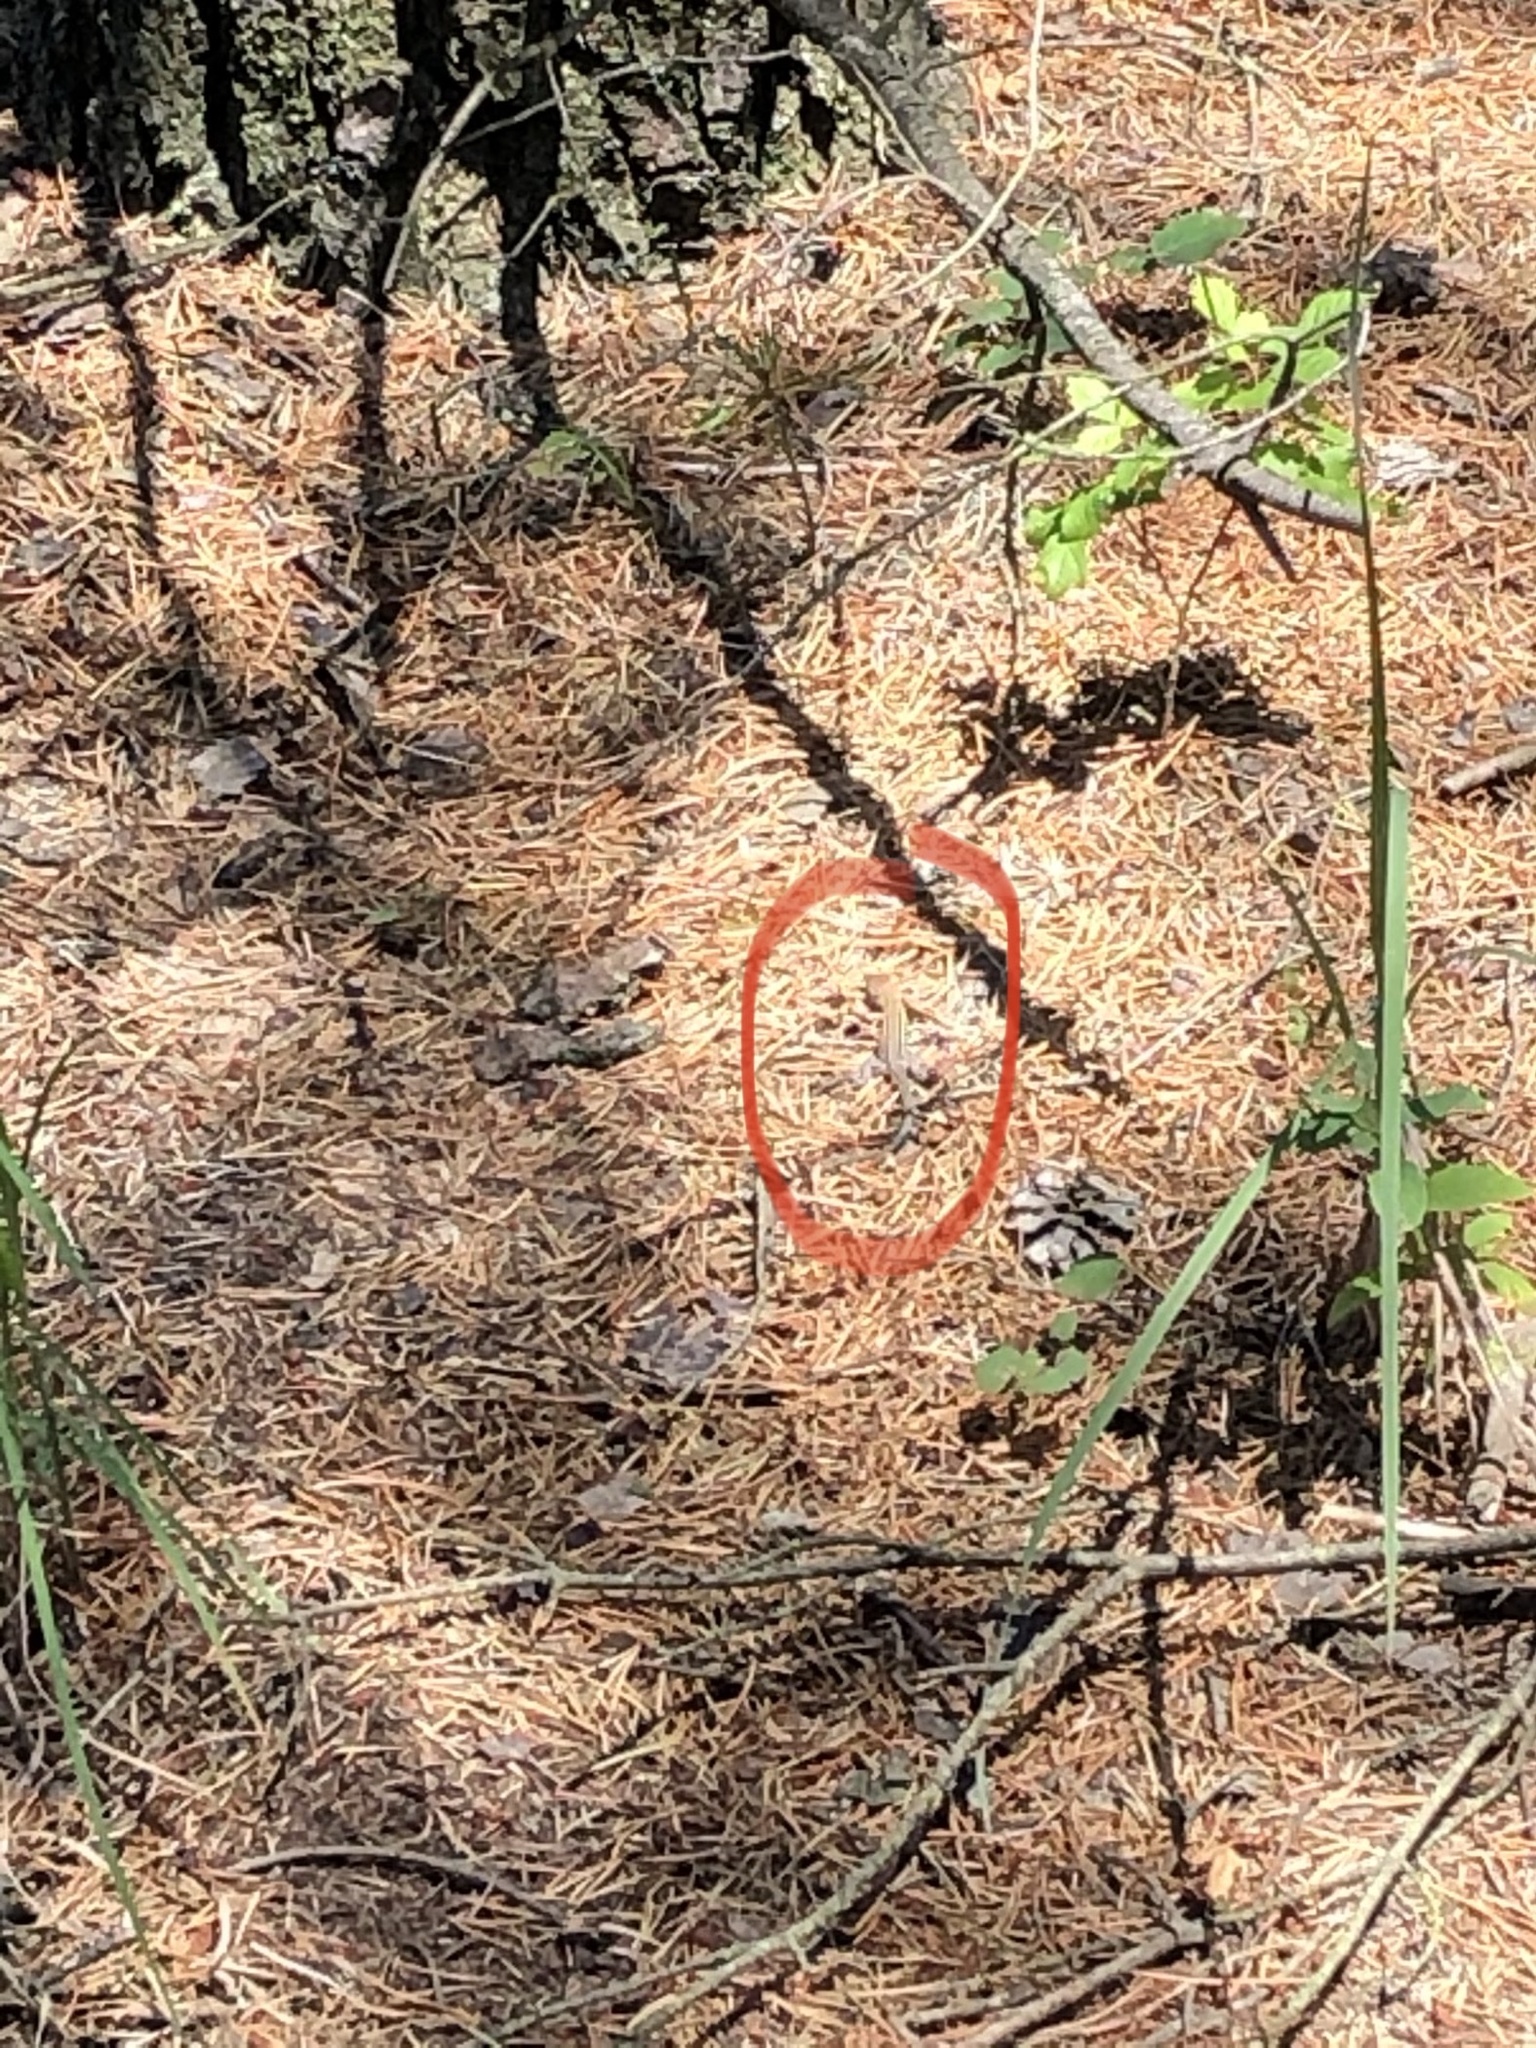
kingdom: Animalia
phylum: Chordata
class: Squamata
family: Teiidae
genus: Aspidoscelis
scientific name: Aspidoscelis sexlineatus
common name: Six-lined racerunner
